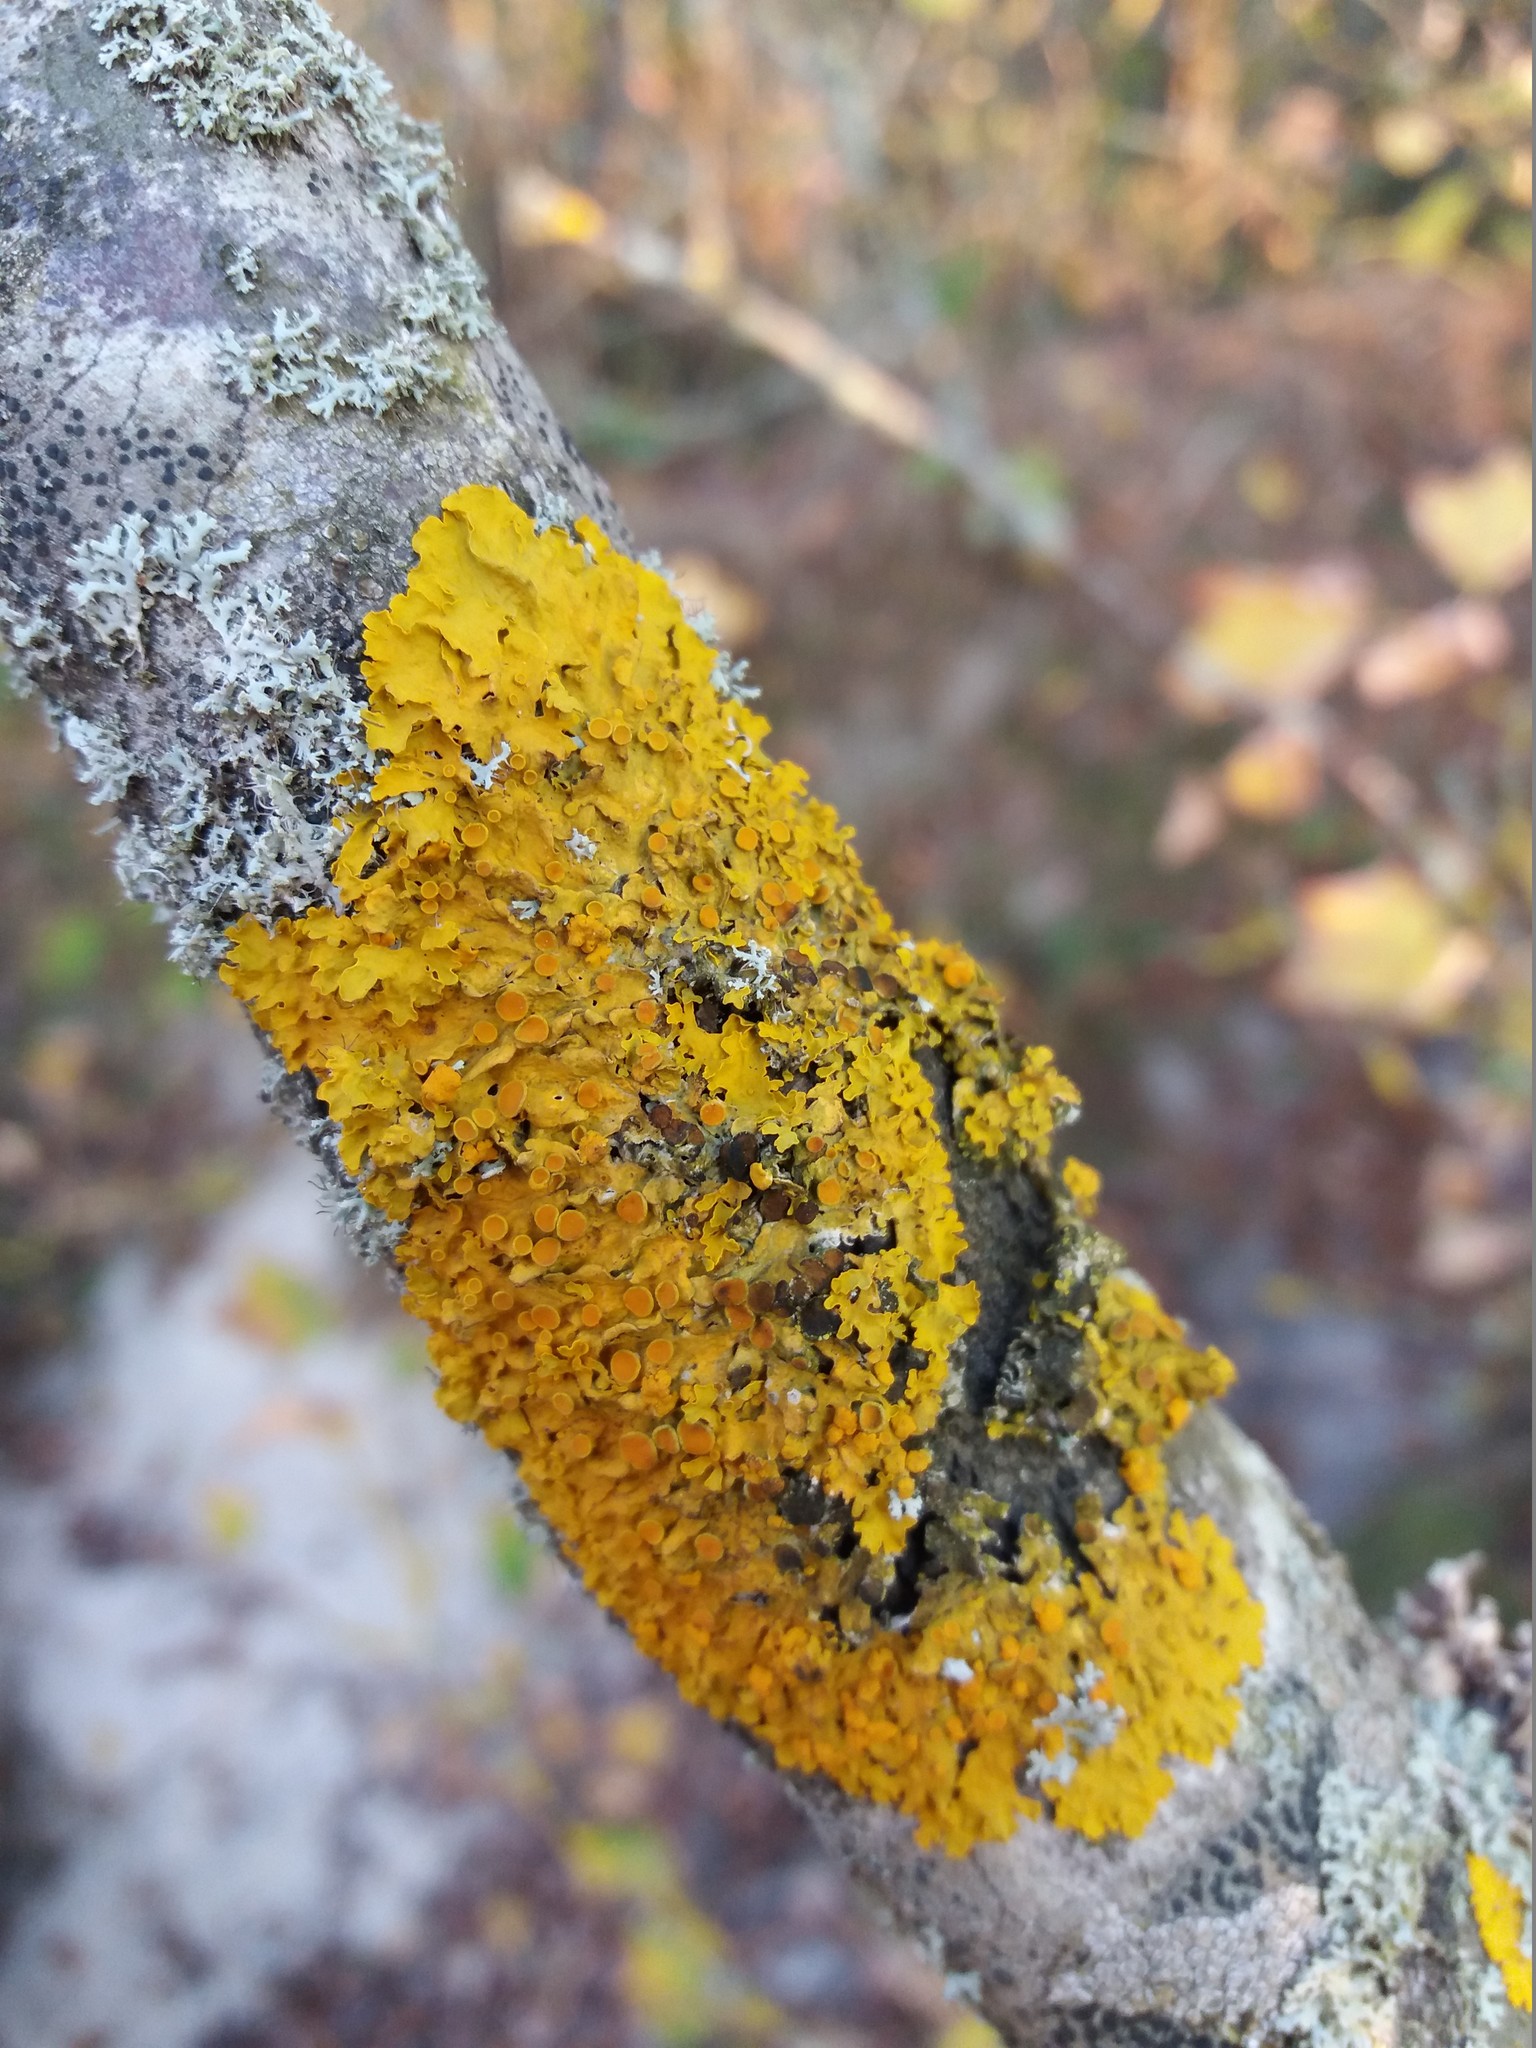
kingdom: Fungi
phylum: Ascomycota
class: Lecanoromycetes
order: Teloschistales
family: Teloschistaceae
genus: Xanthoria
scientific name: Xanthoria parietina
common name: Common orange lichen
